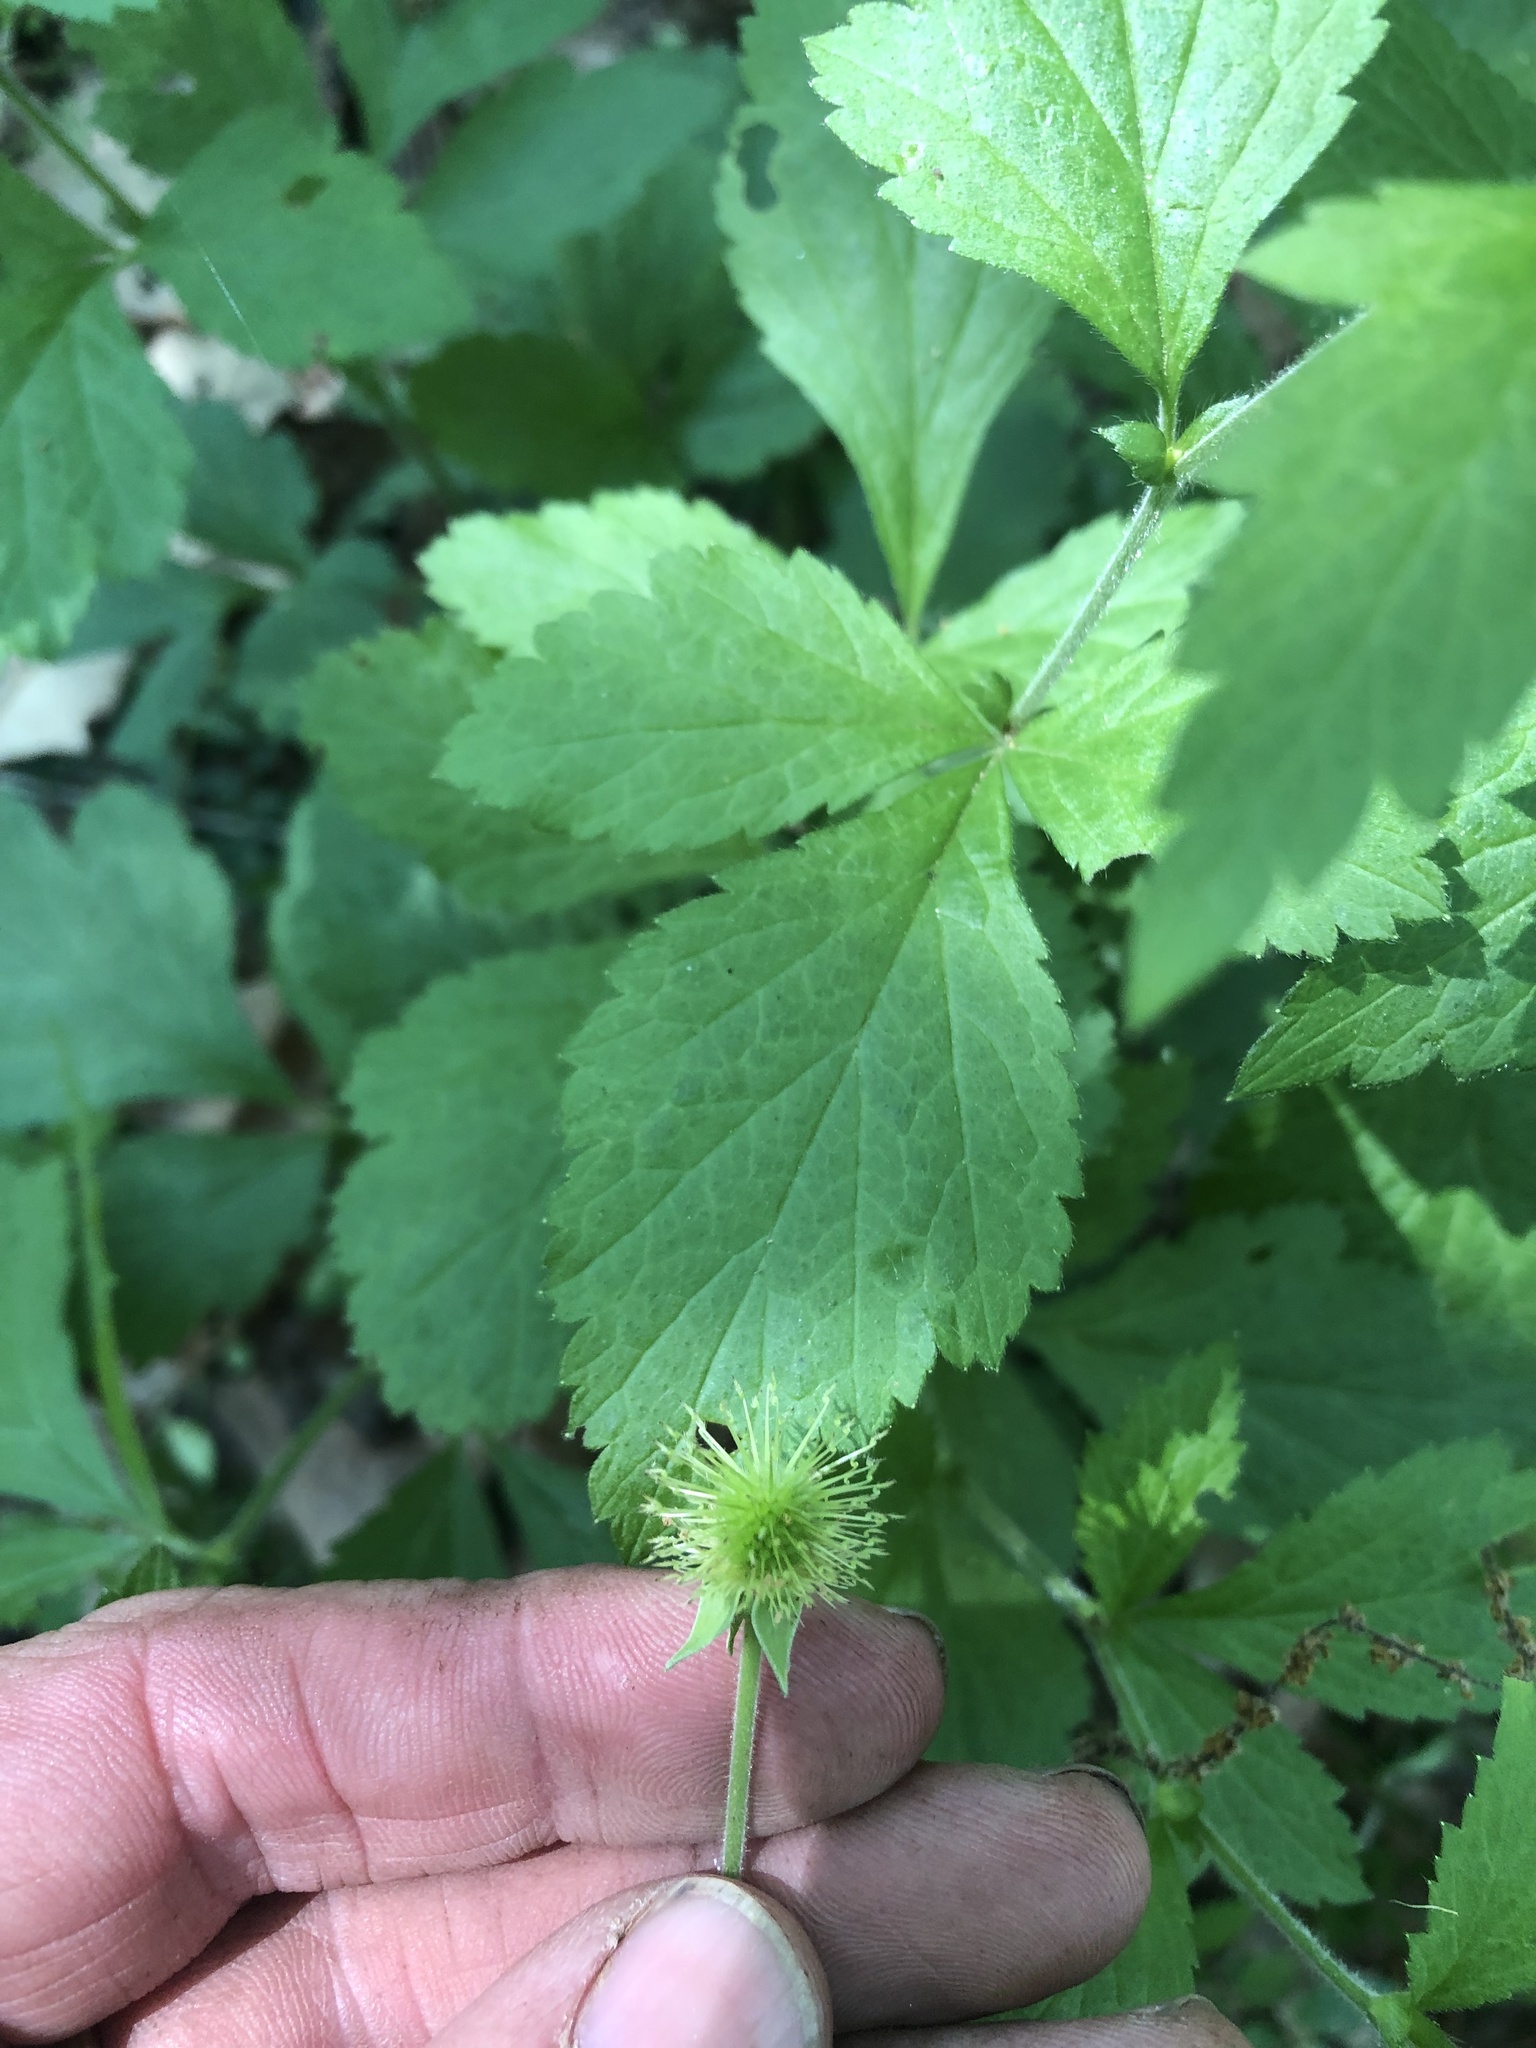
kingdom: Plantae
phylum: Tracheophyta
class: Magnoliopsida
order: Rosales
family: Rosaceae
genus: Geum
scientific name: Geum canadense
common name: White avens
